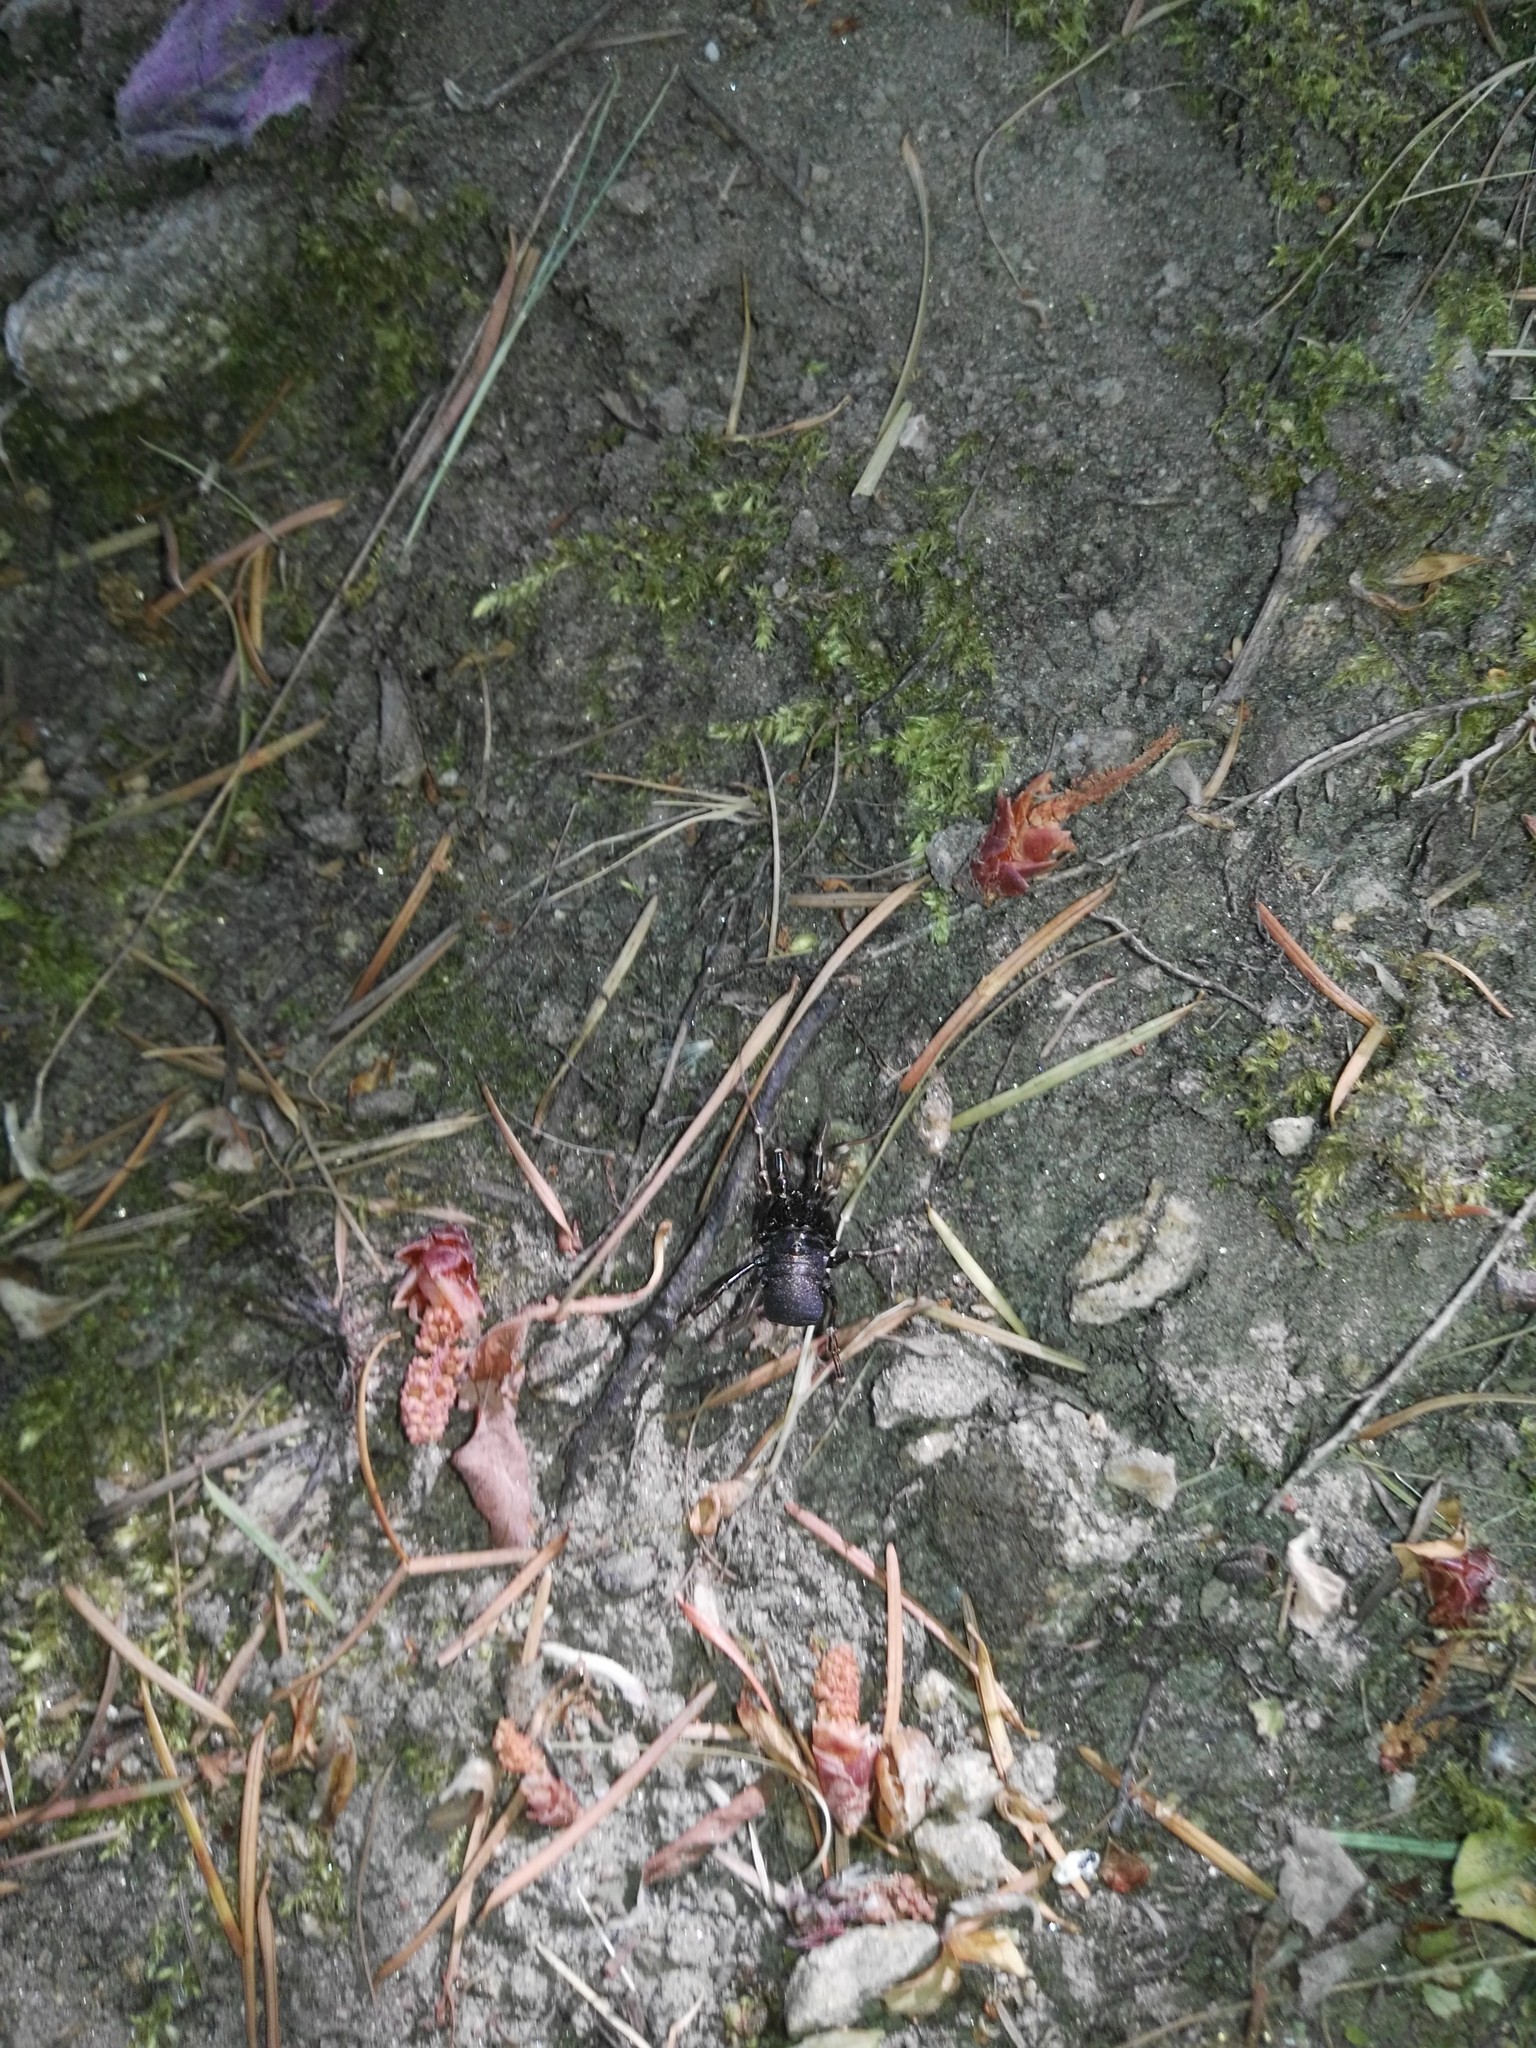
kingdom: Animalia
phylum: Arthropoda
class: Arachnida
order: Opiliones
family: Phalangiidae
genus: Egaenus
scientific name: Egaenus convexus
